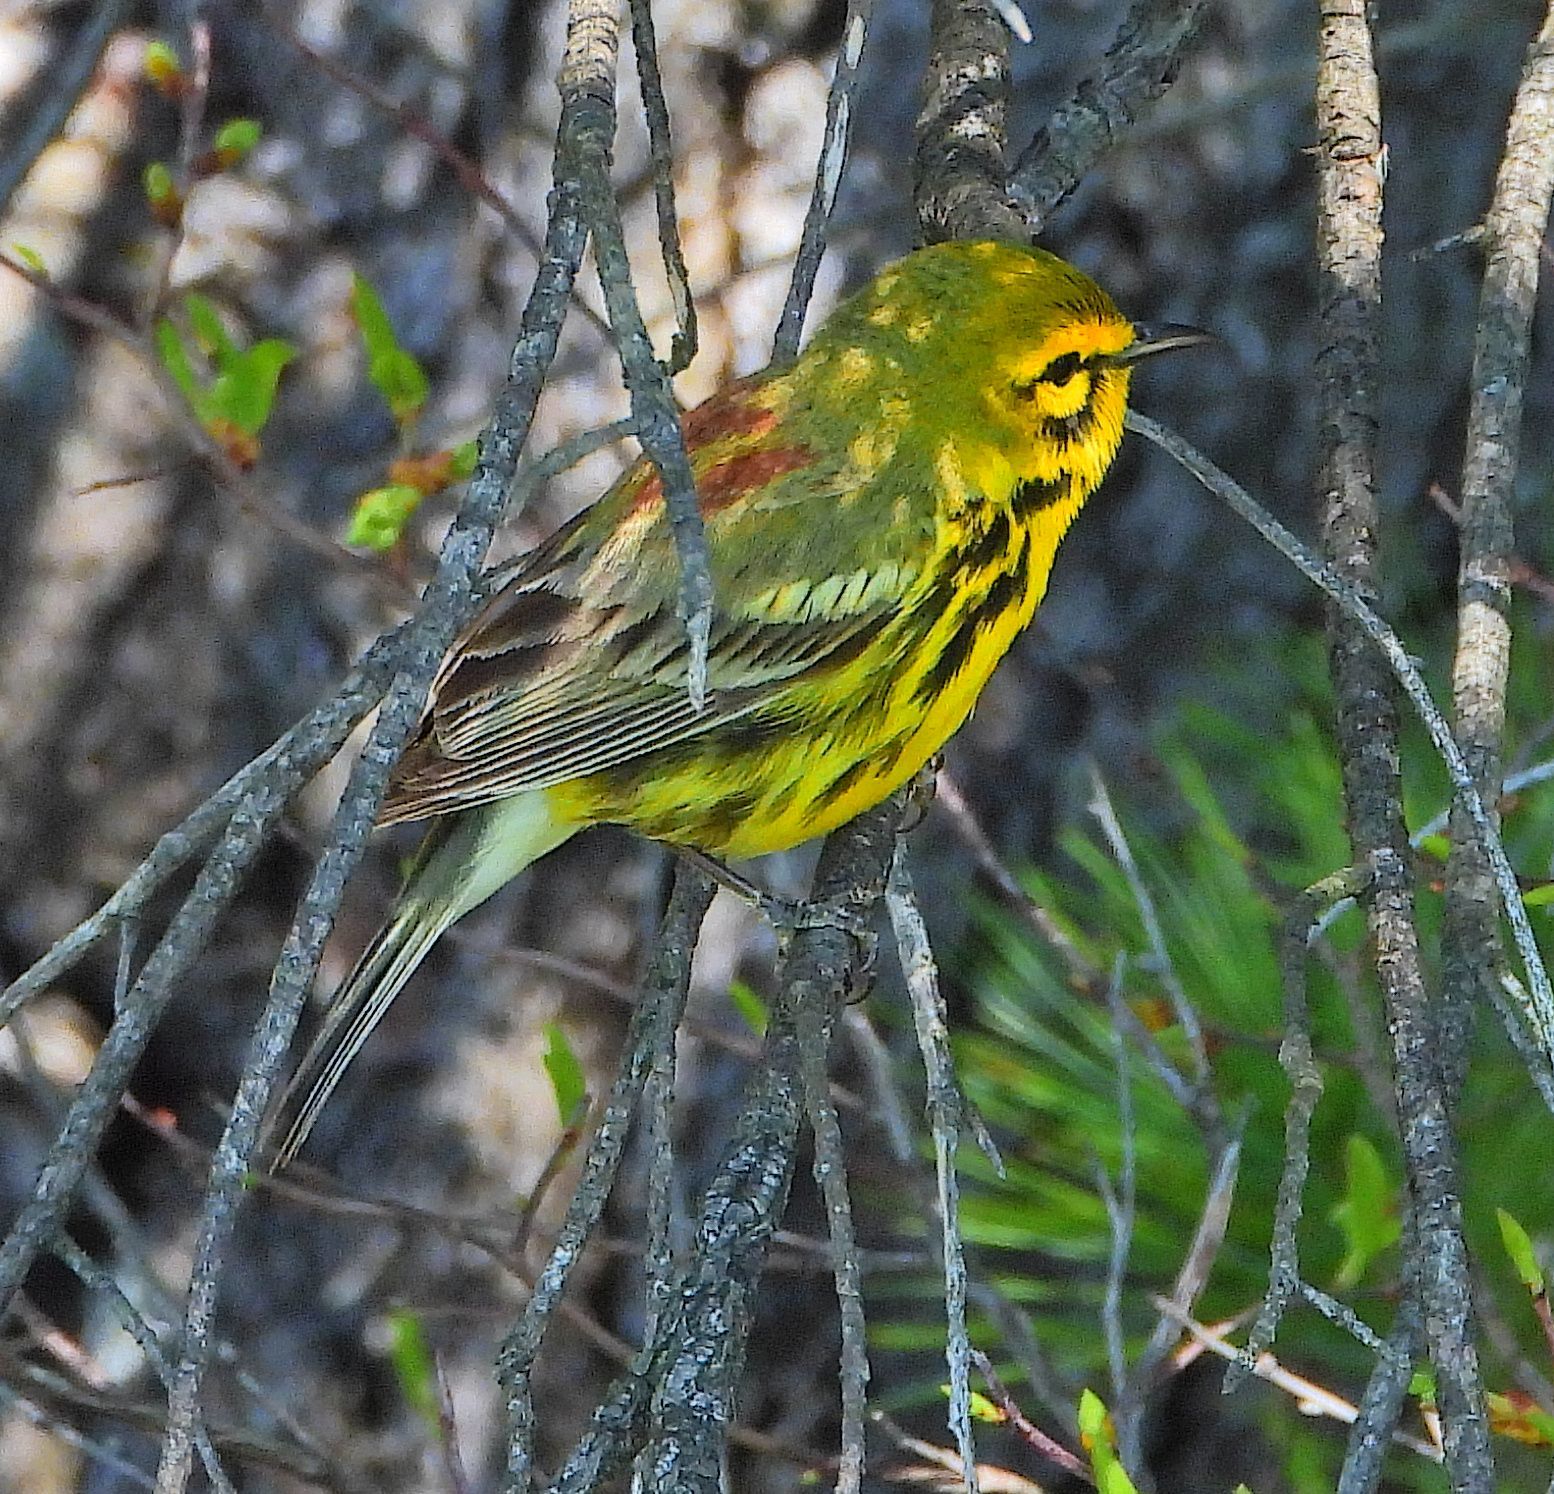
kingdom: Animalia
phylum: Chordata
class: Aves
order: Passeriformes
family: Parulidae
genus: Setophaga
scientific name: Setophaga discolor
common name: Prairie warbler
